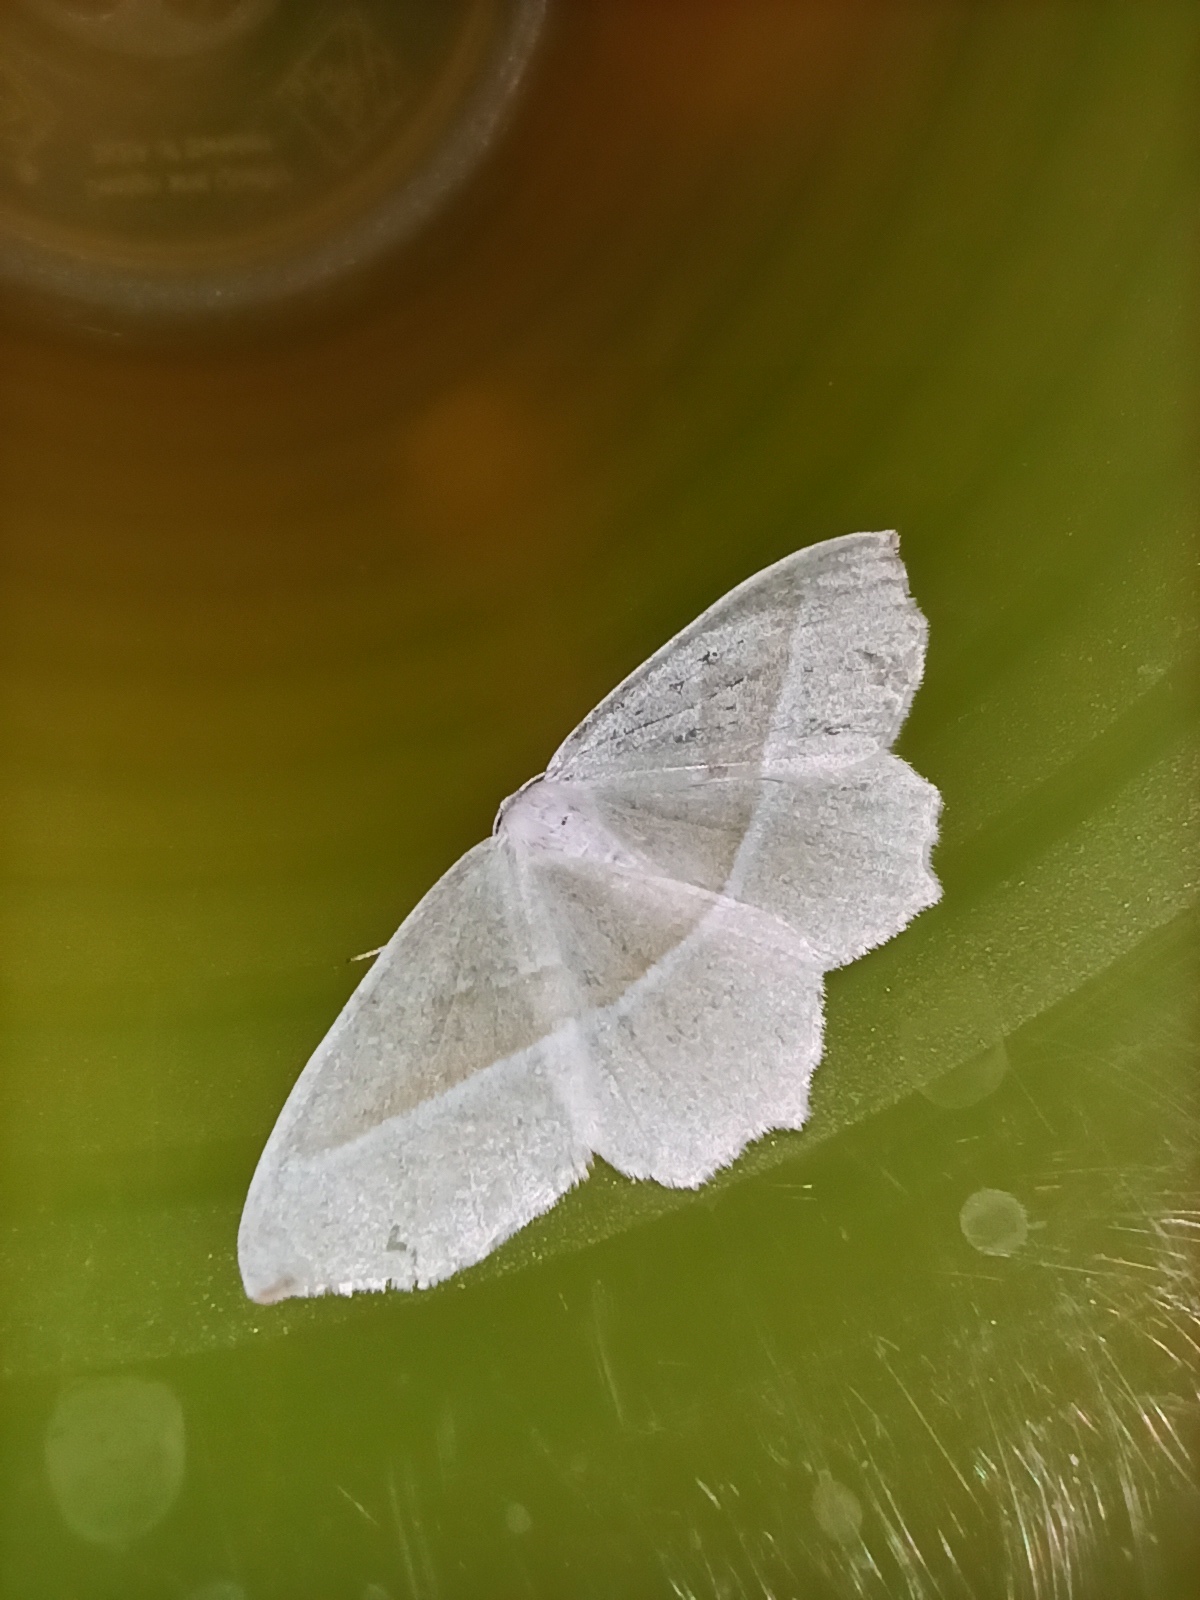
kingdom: Animalia
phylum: Arthropoda
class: Insecta
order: Lepidoptera
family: Geometridae
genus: Campaea
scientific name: Campaea margaritaria
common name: Light emerald
